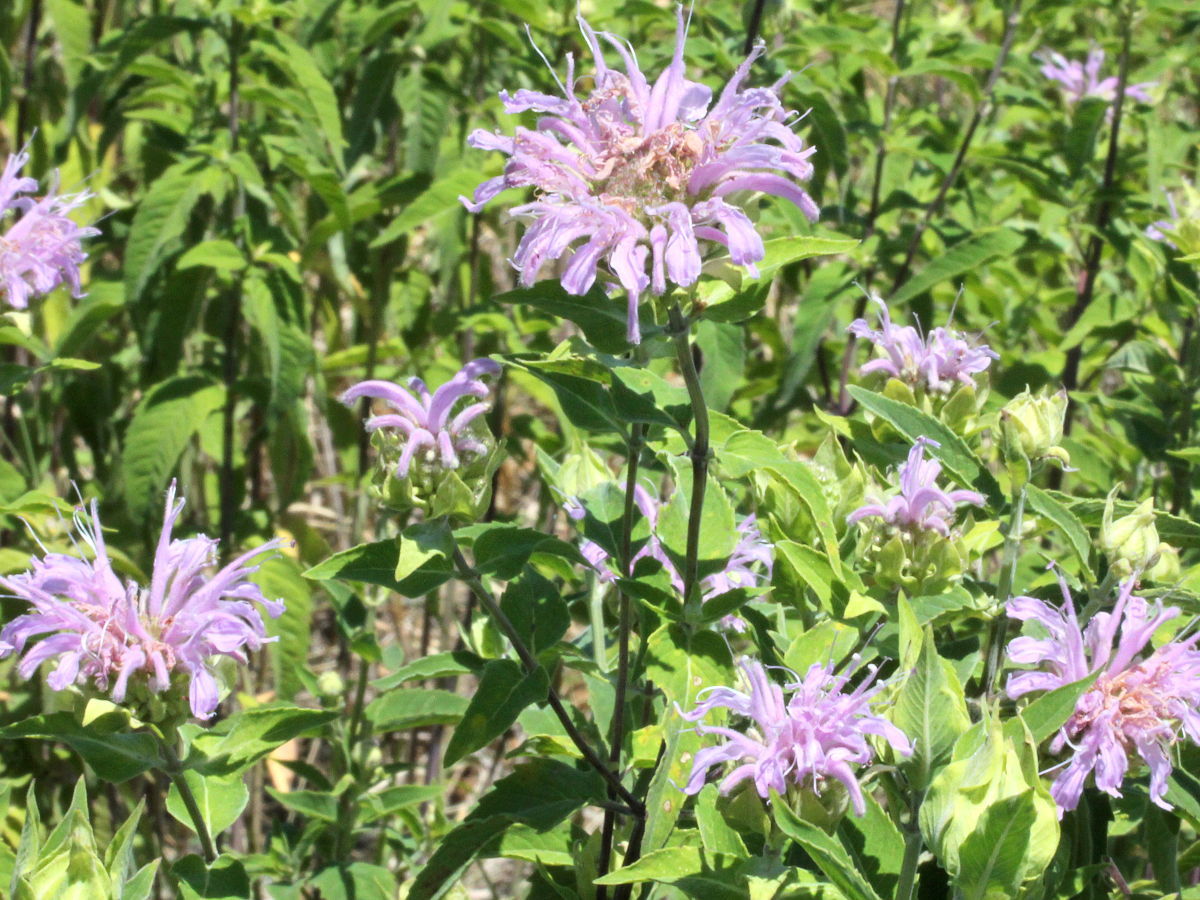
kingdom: Plantae
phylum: Tracheophyta
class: Magnoliopsida
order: Lamiales
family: Lamiaceae
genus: Monarda
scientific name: Monarda fistulosa
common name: Purple beebalm
